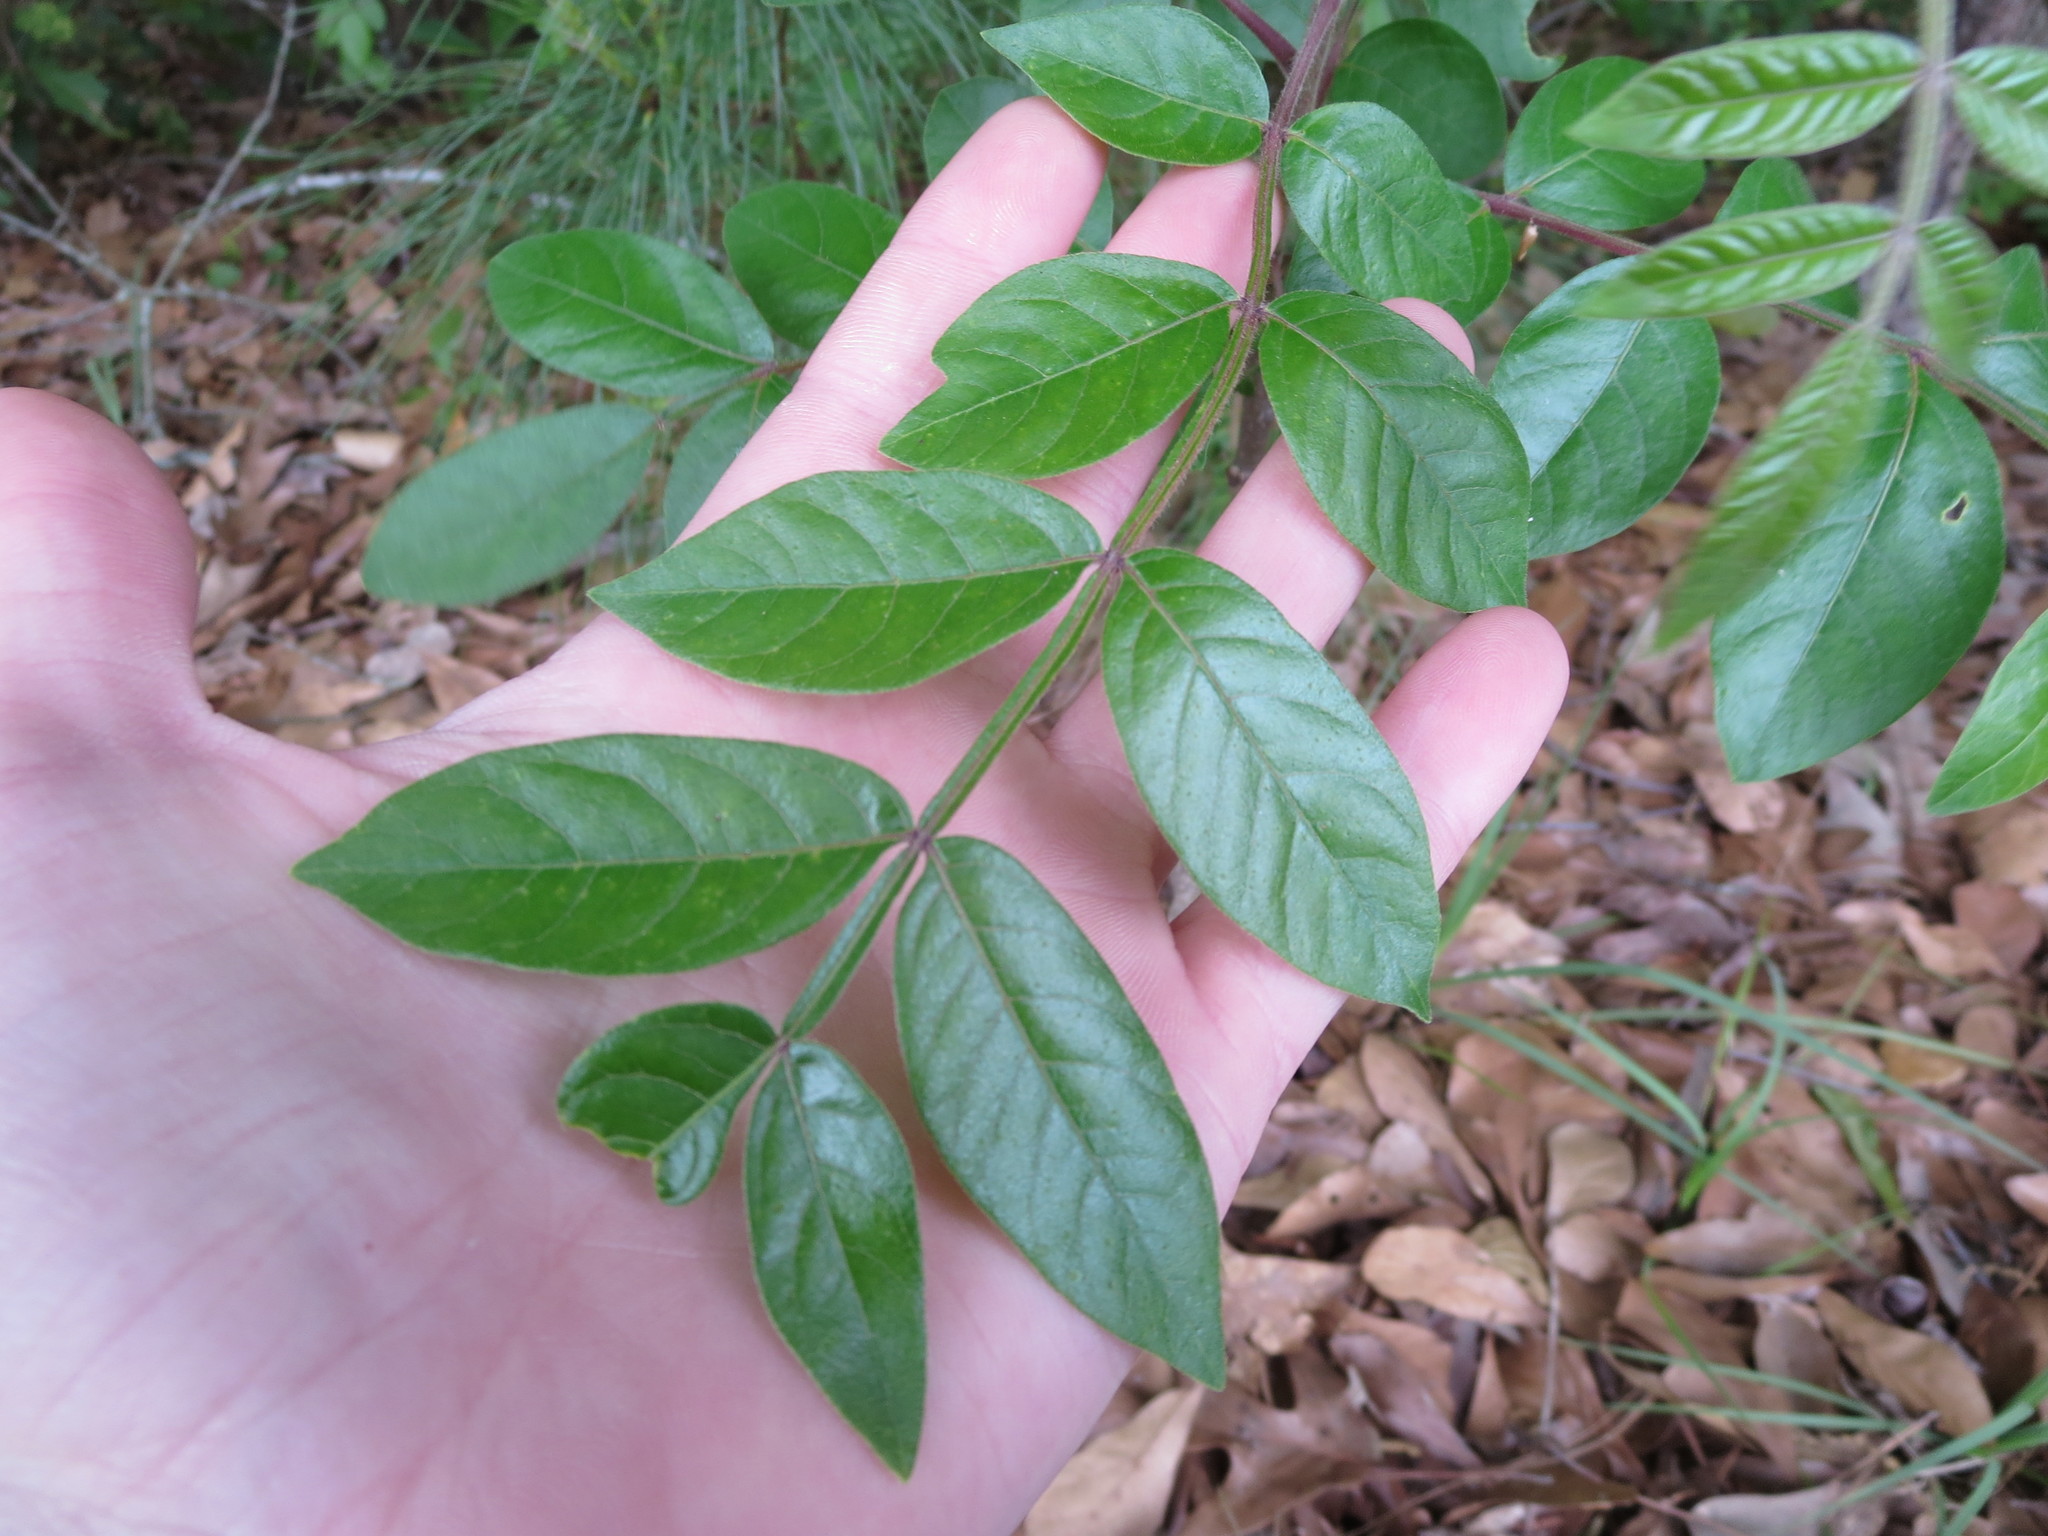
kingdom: Plantae
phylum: Tracheophyta
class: Magnoliopsida
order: Sapindales
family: Anacardiaceae
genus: Rhus
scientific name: Rhus copallina
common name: Shining sumac
